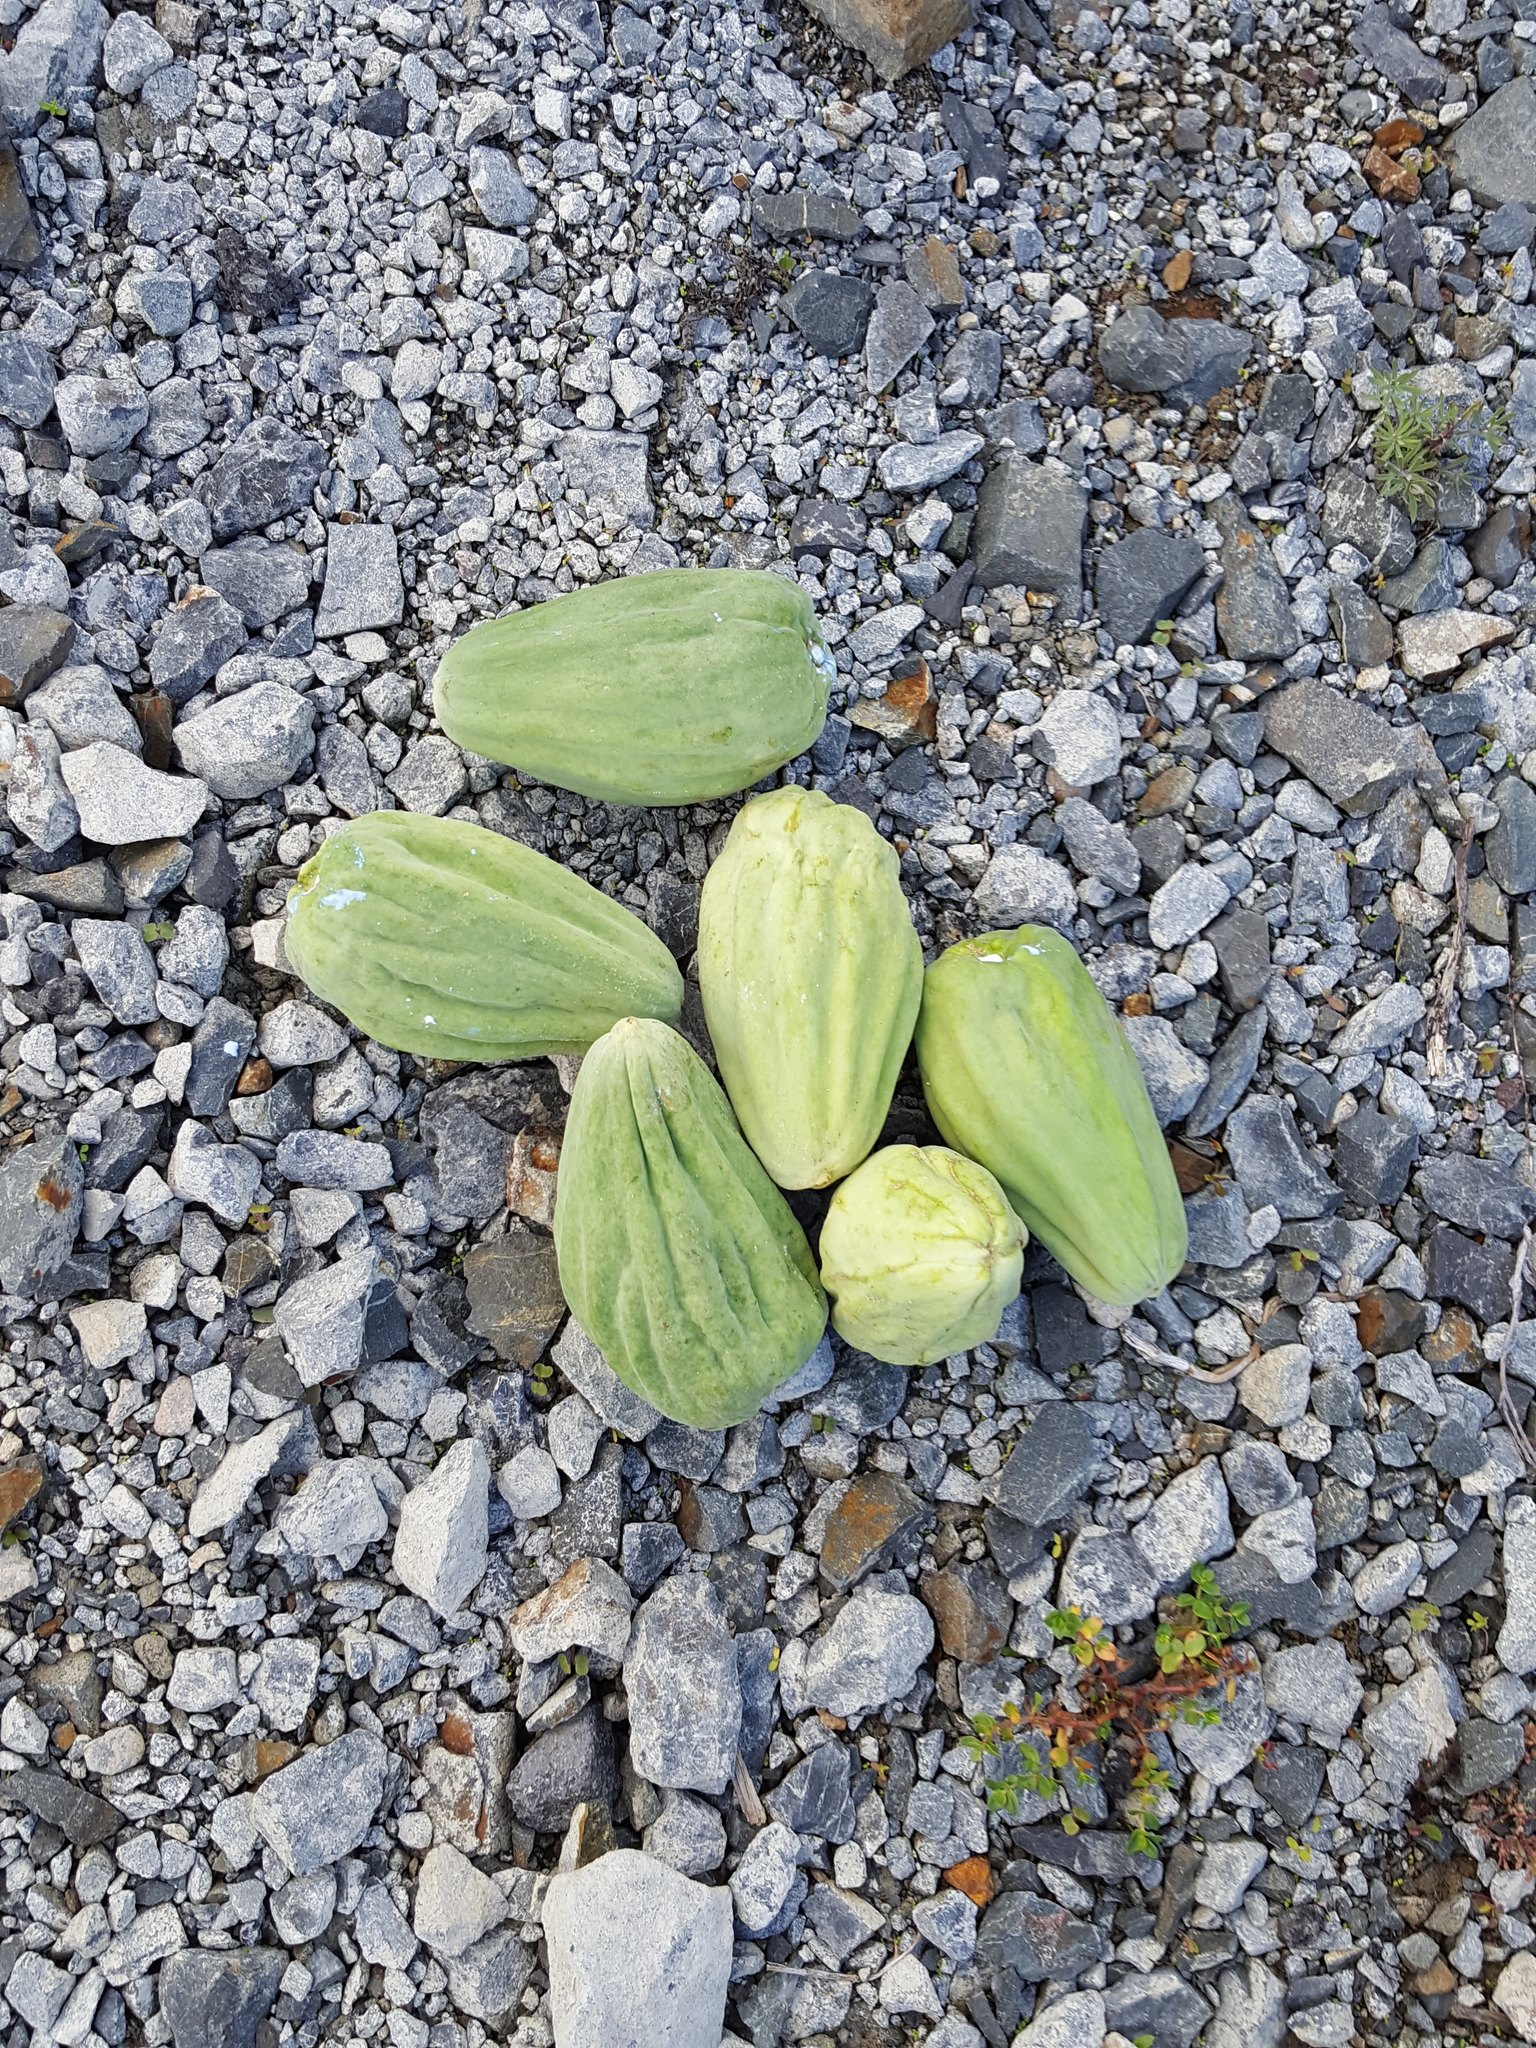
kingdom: Plantae
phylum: Tracheophyta
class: Magnoliopsida
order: Gentianales
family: Apocynaceae
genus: Araujia
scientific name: Araujia sericifera
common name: White bladderflower
